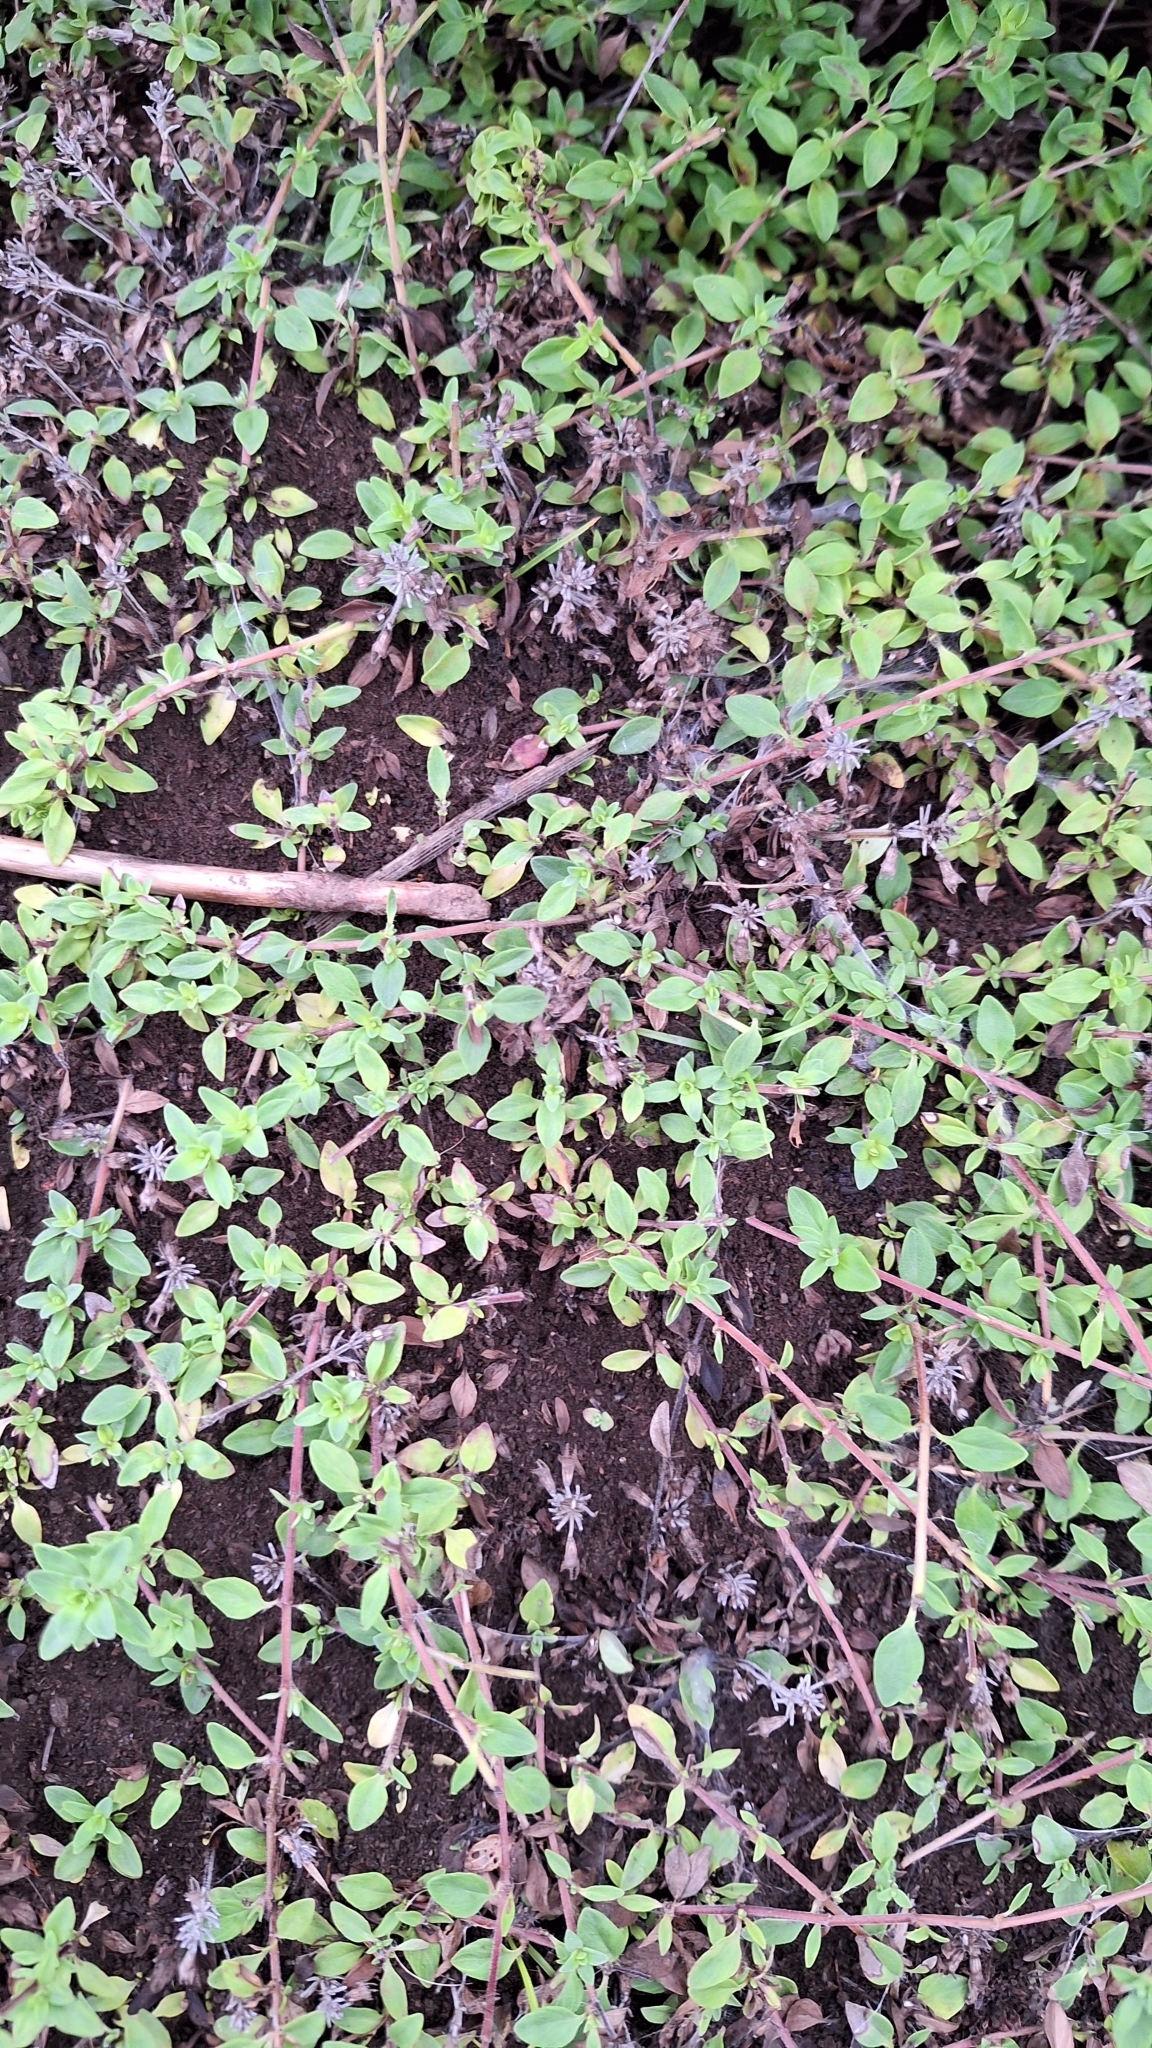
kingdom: Plantae
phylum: Tracheophyta
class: Magnoliopsida
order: Lamiales
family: Lamiaceae
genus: Thymus
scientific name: Thymus semiglaber
